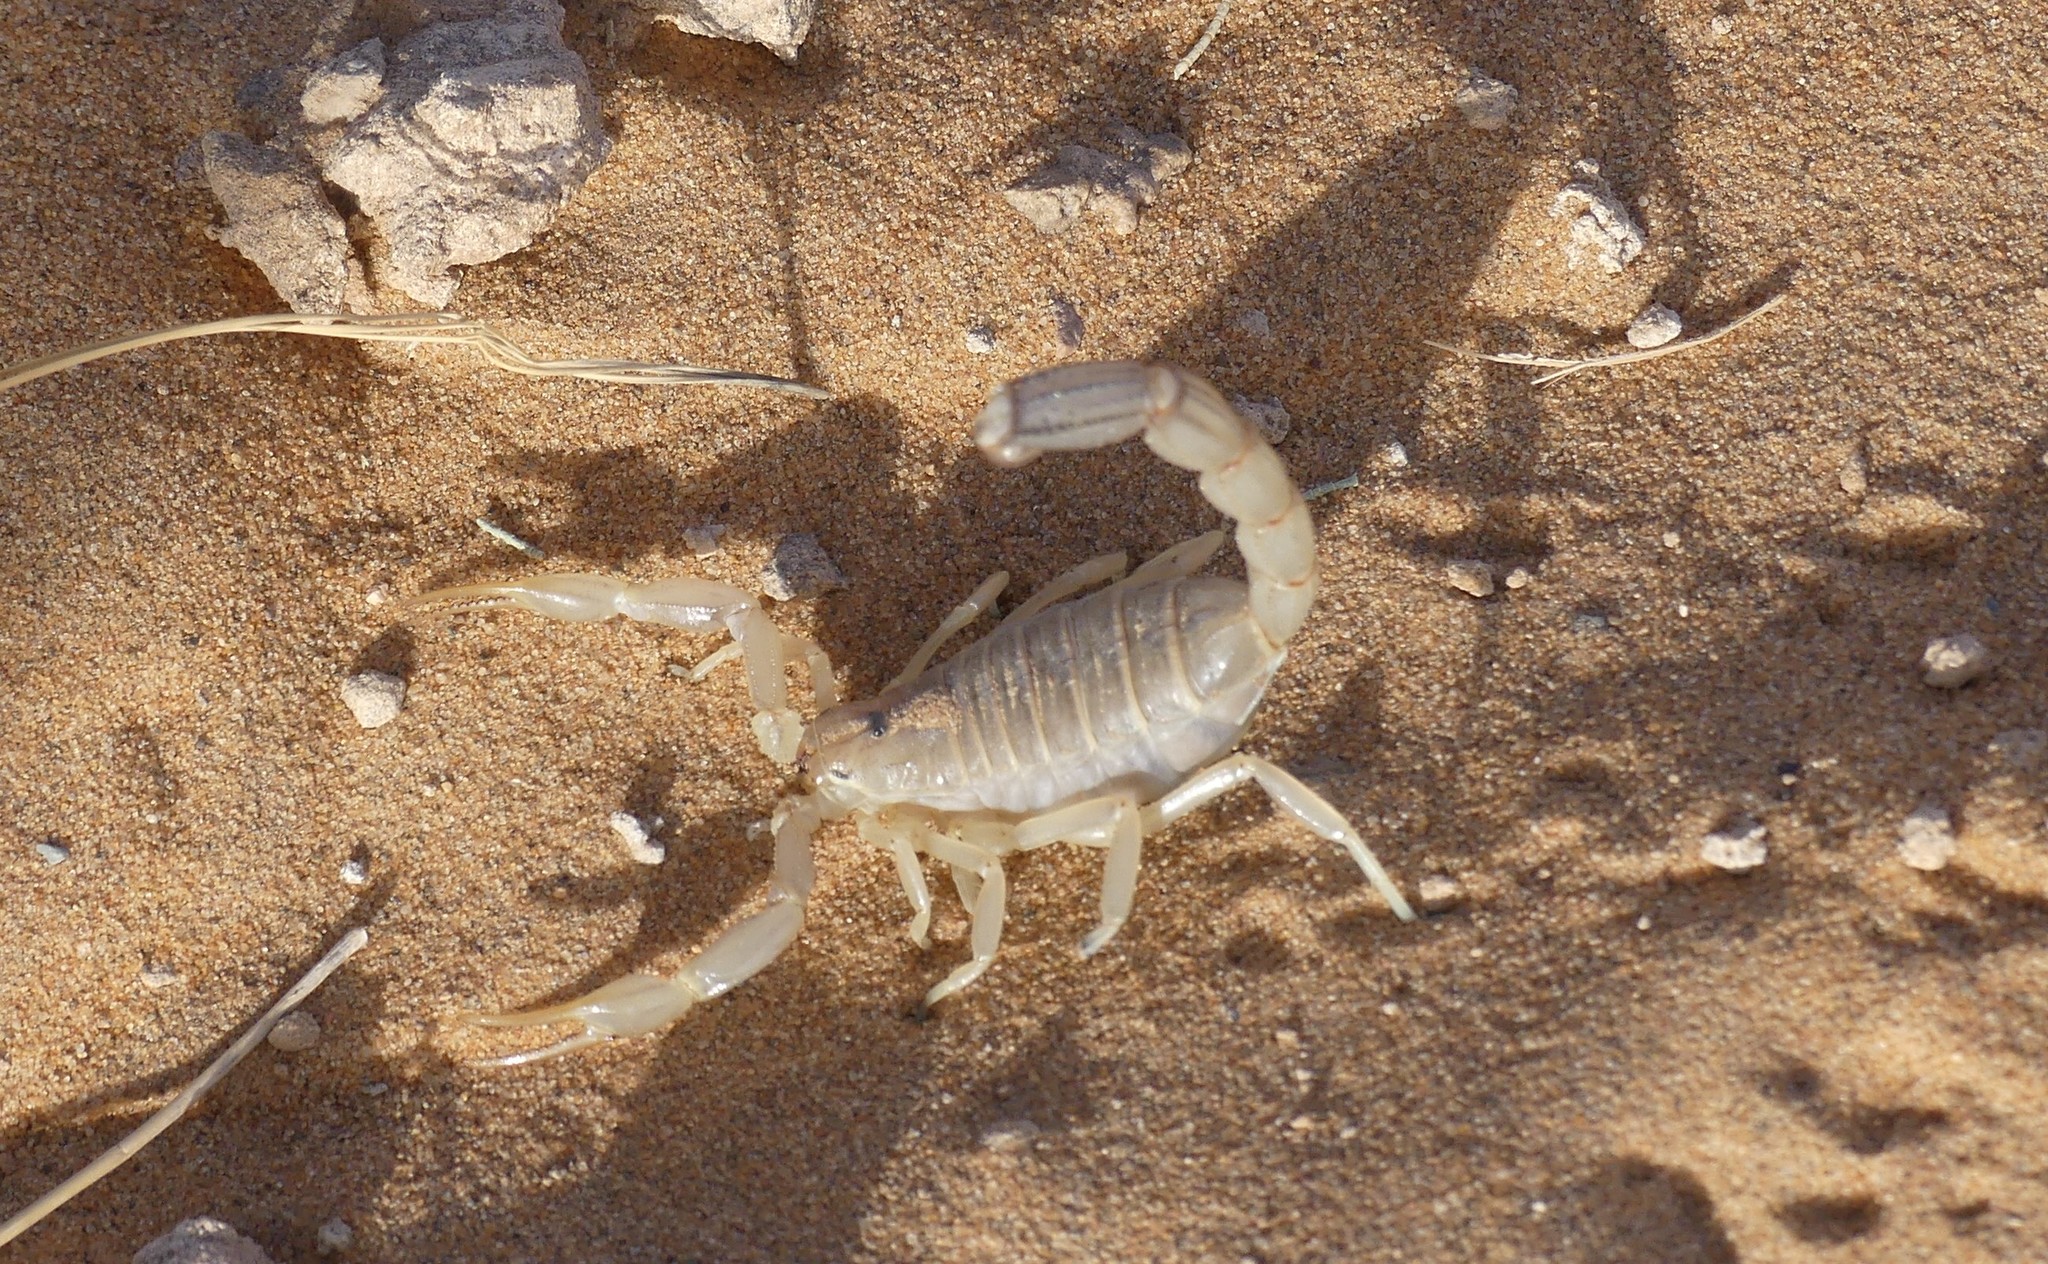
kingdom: Animalia
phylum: Arthropoda
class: Arachnida
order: Scorpiones
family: Buthidae
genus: Androctonus
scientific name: Androctonus amoreuxi
